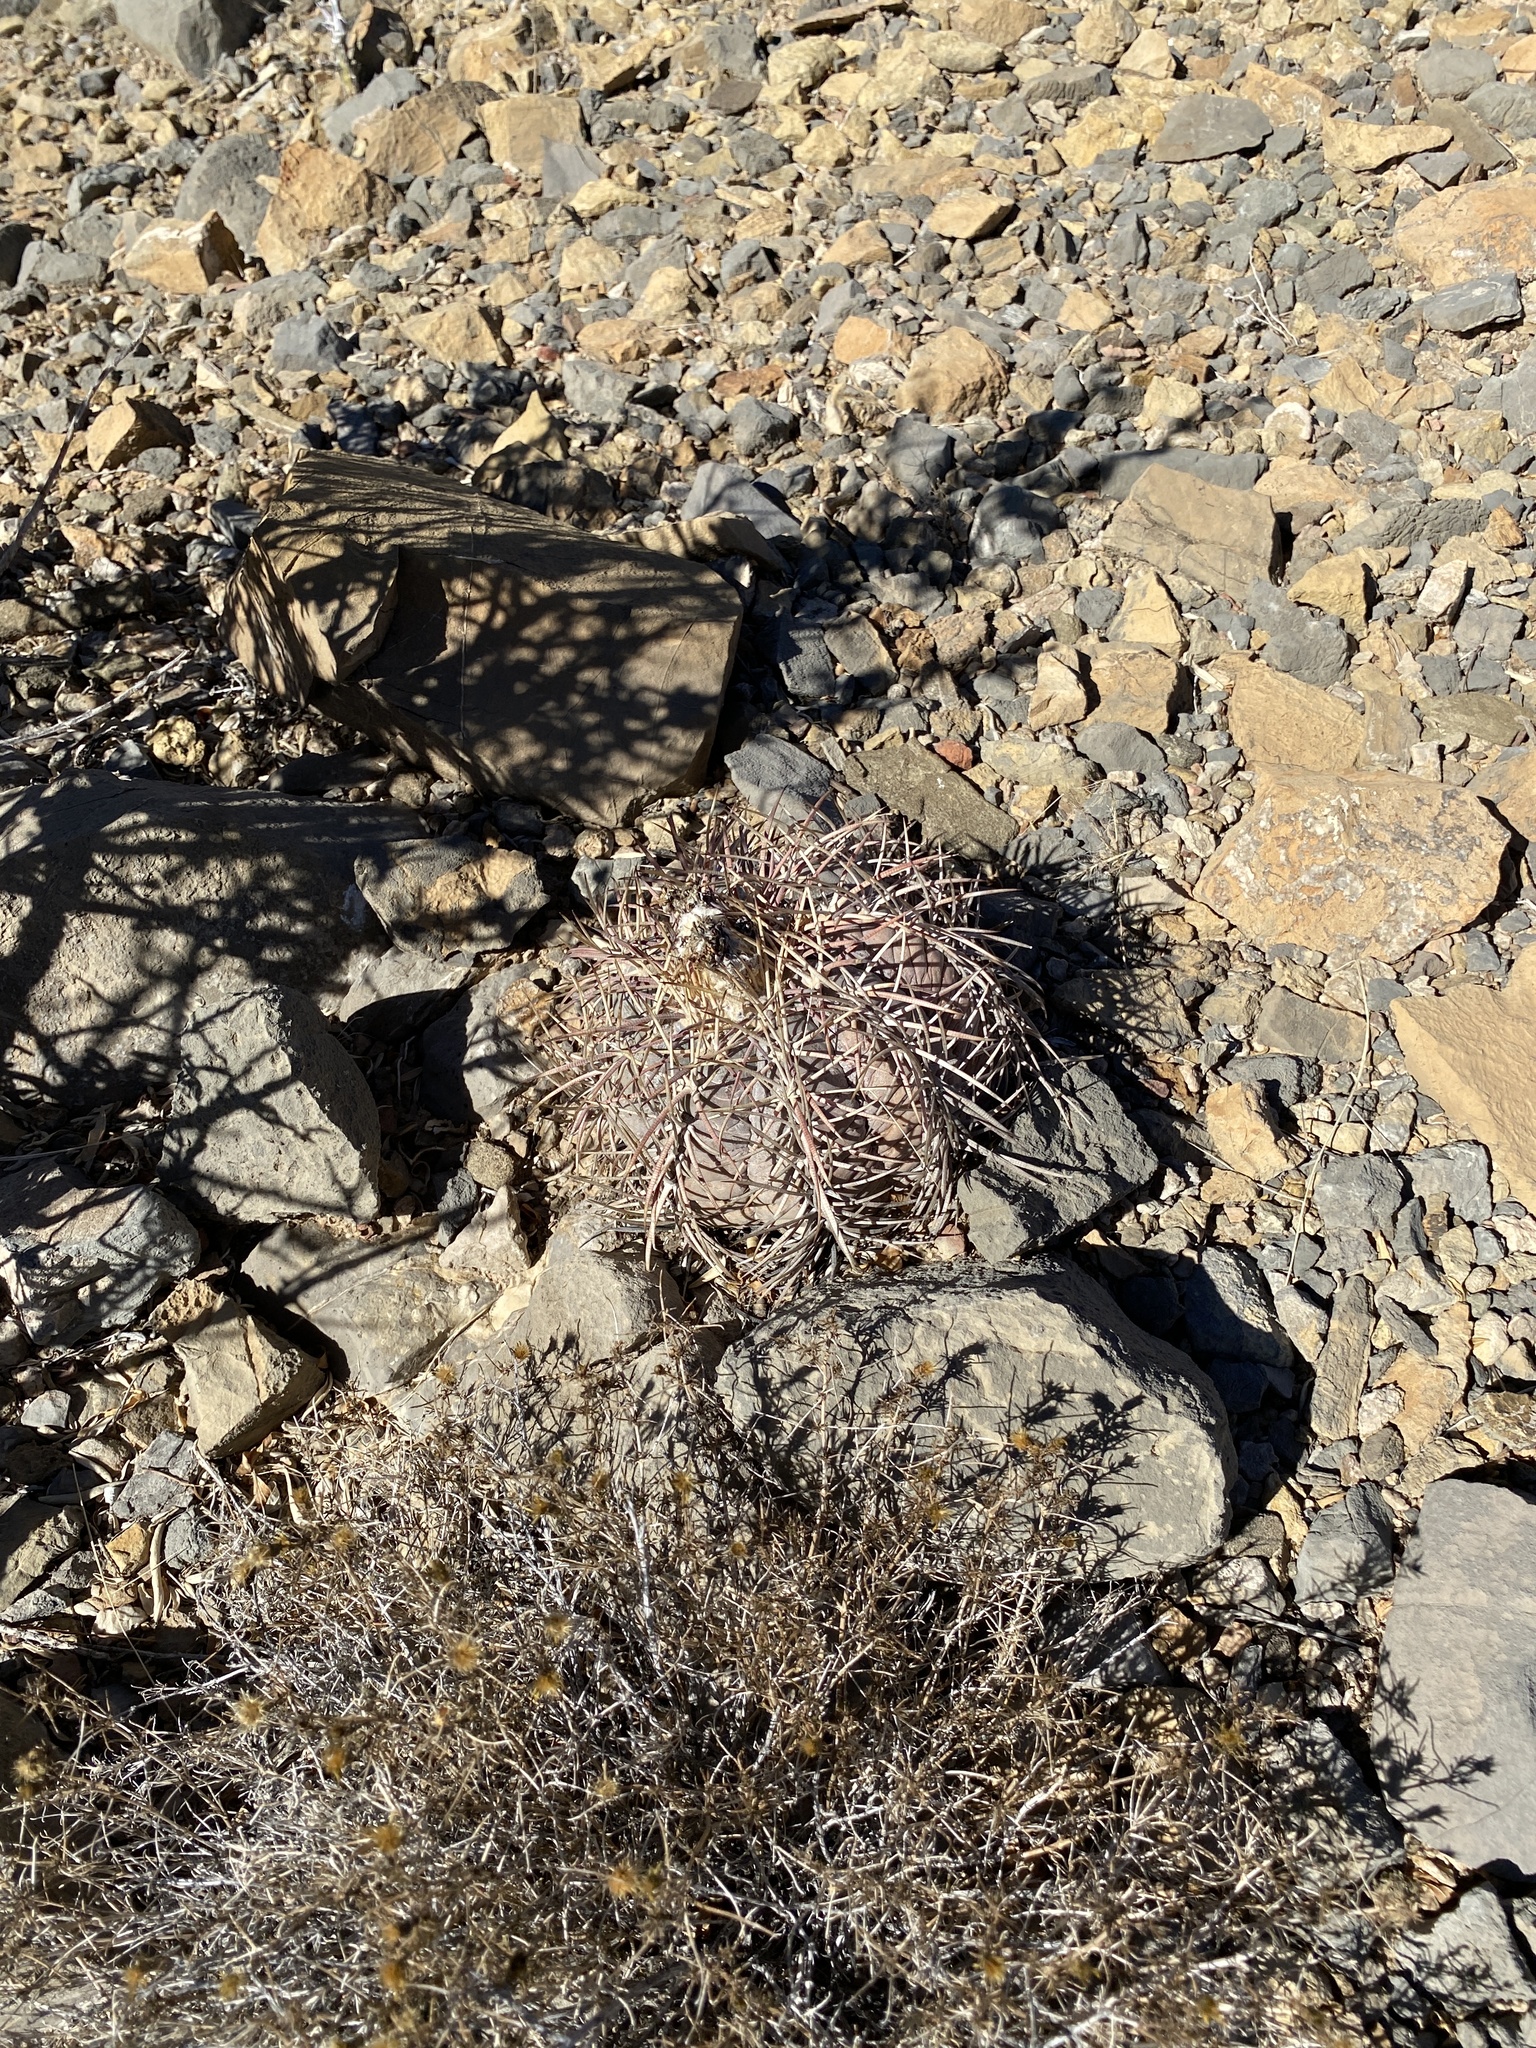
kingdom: Plantae
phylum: Tracheophyta
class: Magnoliopsida
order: Caryophyllales
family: Cactaceae
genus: Echinocactus
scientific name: Echinocactus horizonthalonius
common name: Devilshead
